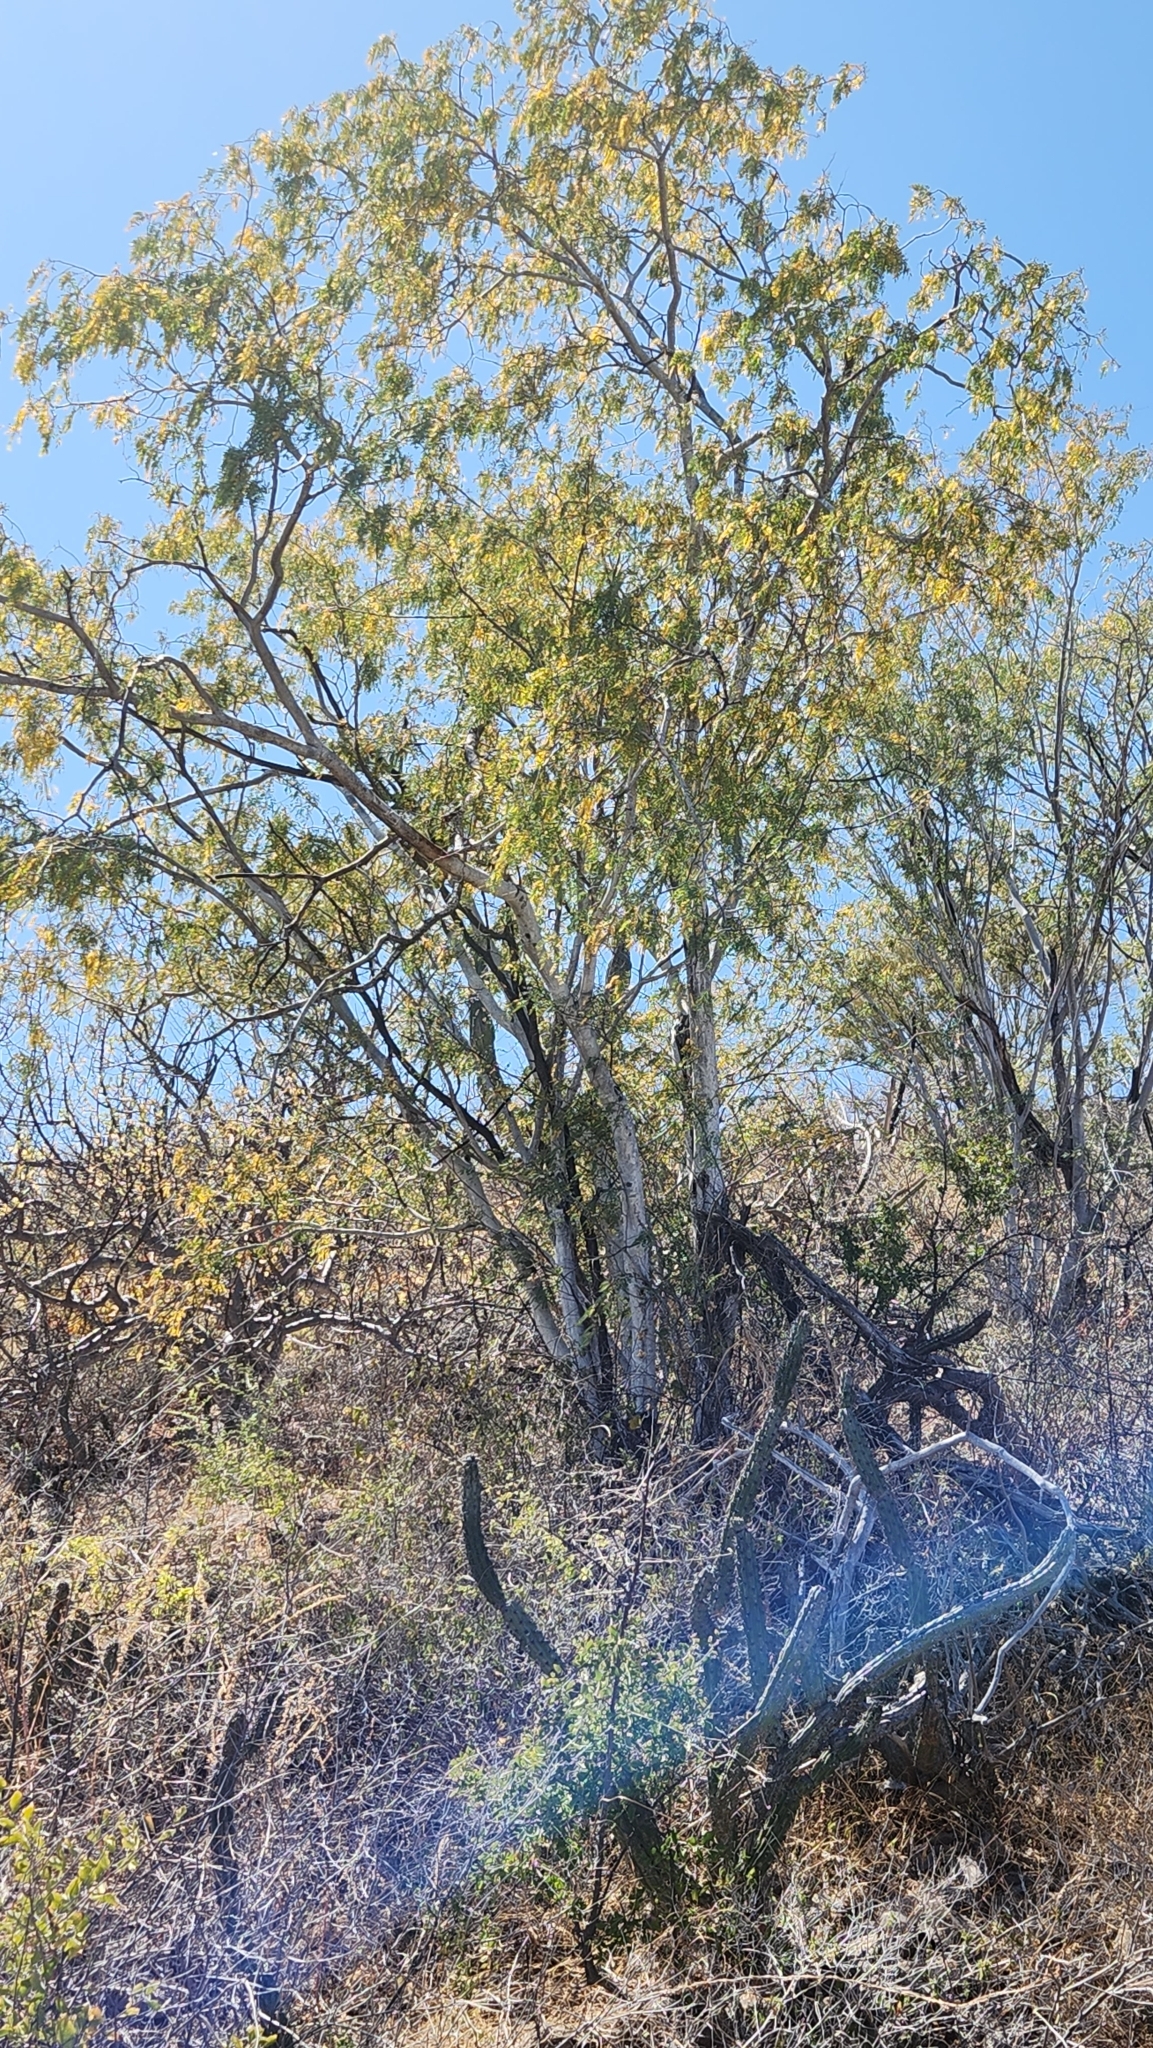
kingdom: Plantae
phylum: Tracheophyta
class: Magnoliopsida
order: Fabales
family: Fabaceae
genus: Lysiloma
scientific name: Lysiloma candidum
